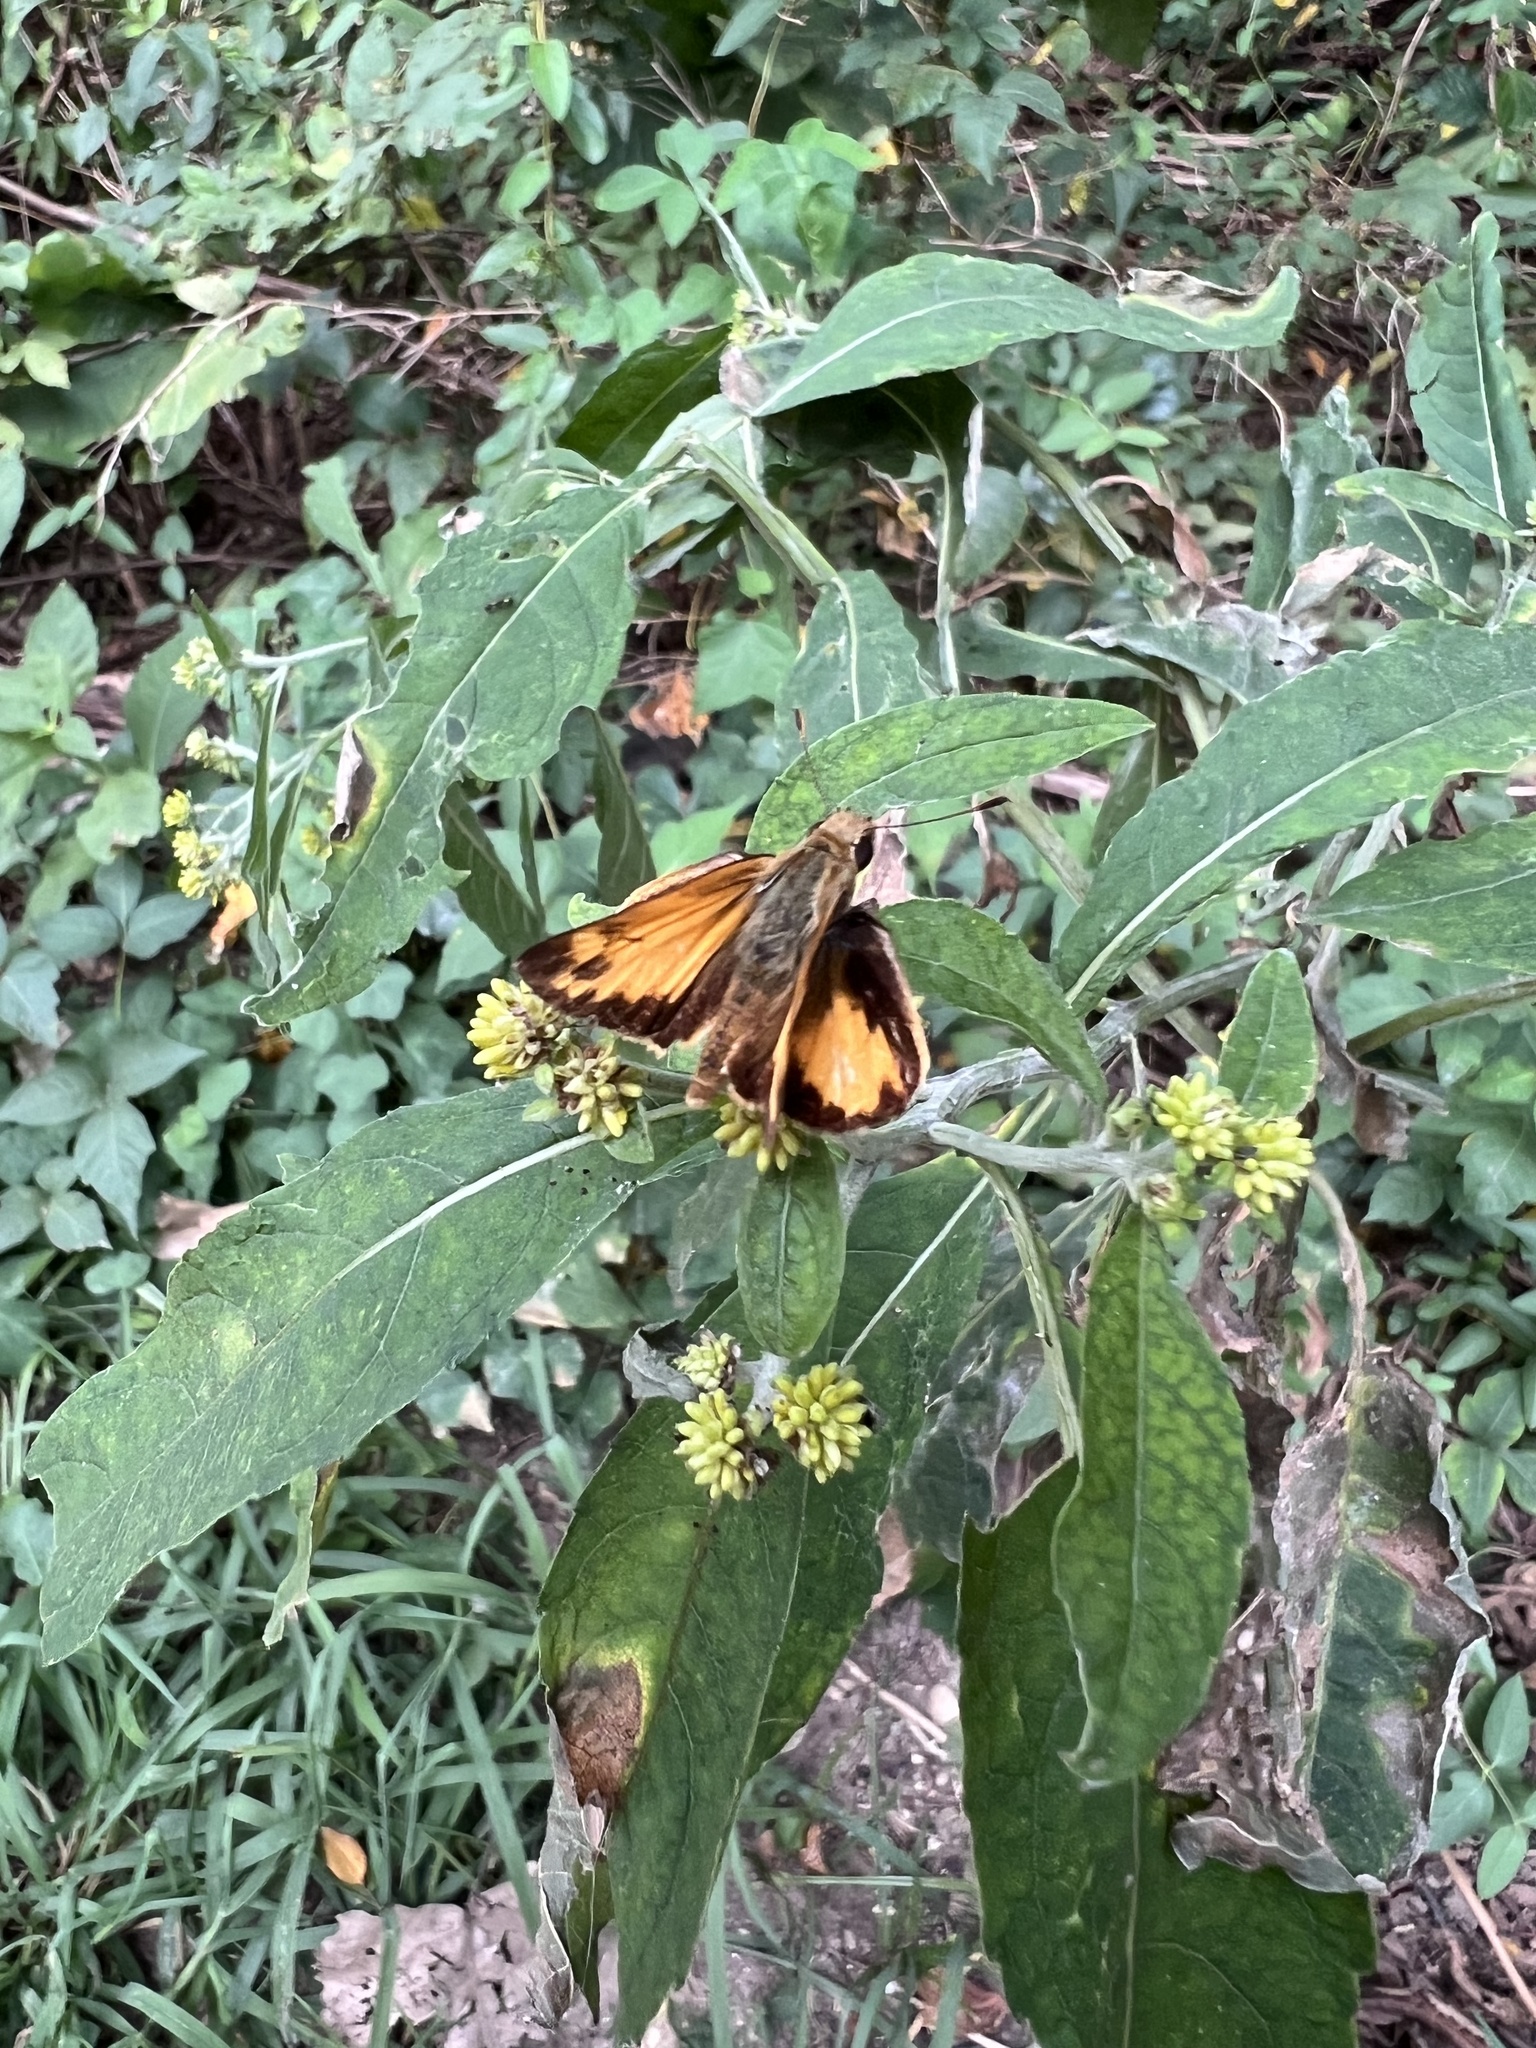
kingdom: Animalia
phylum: Arthropoda
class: Insecta
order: Lepidoptera
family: Hesperiidae
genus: Lon
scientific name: Lon zabulon
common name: Zabulon skipper
